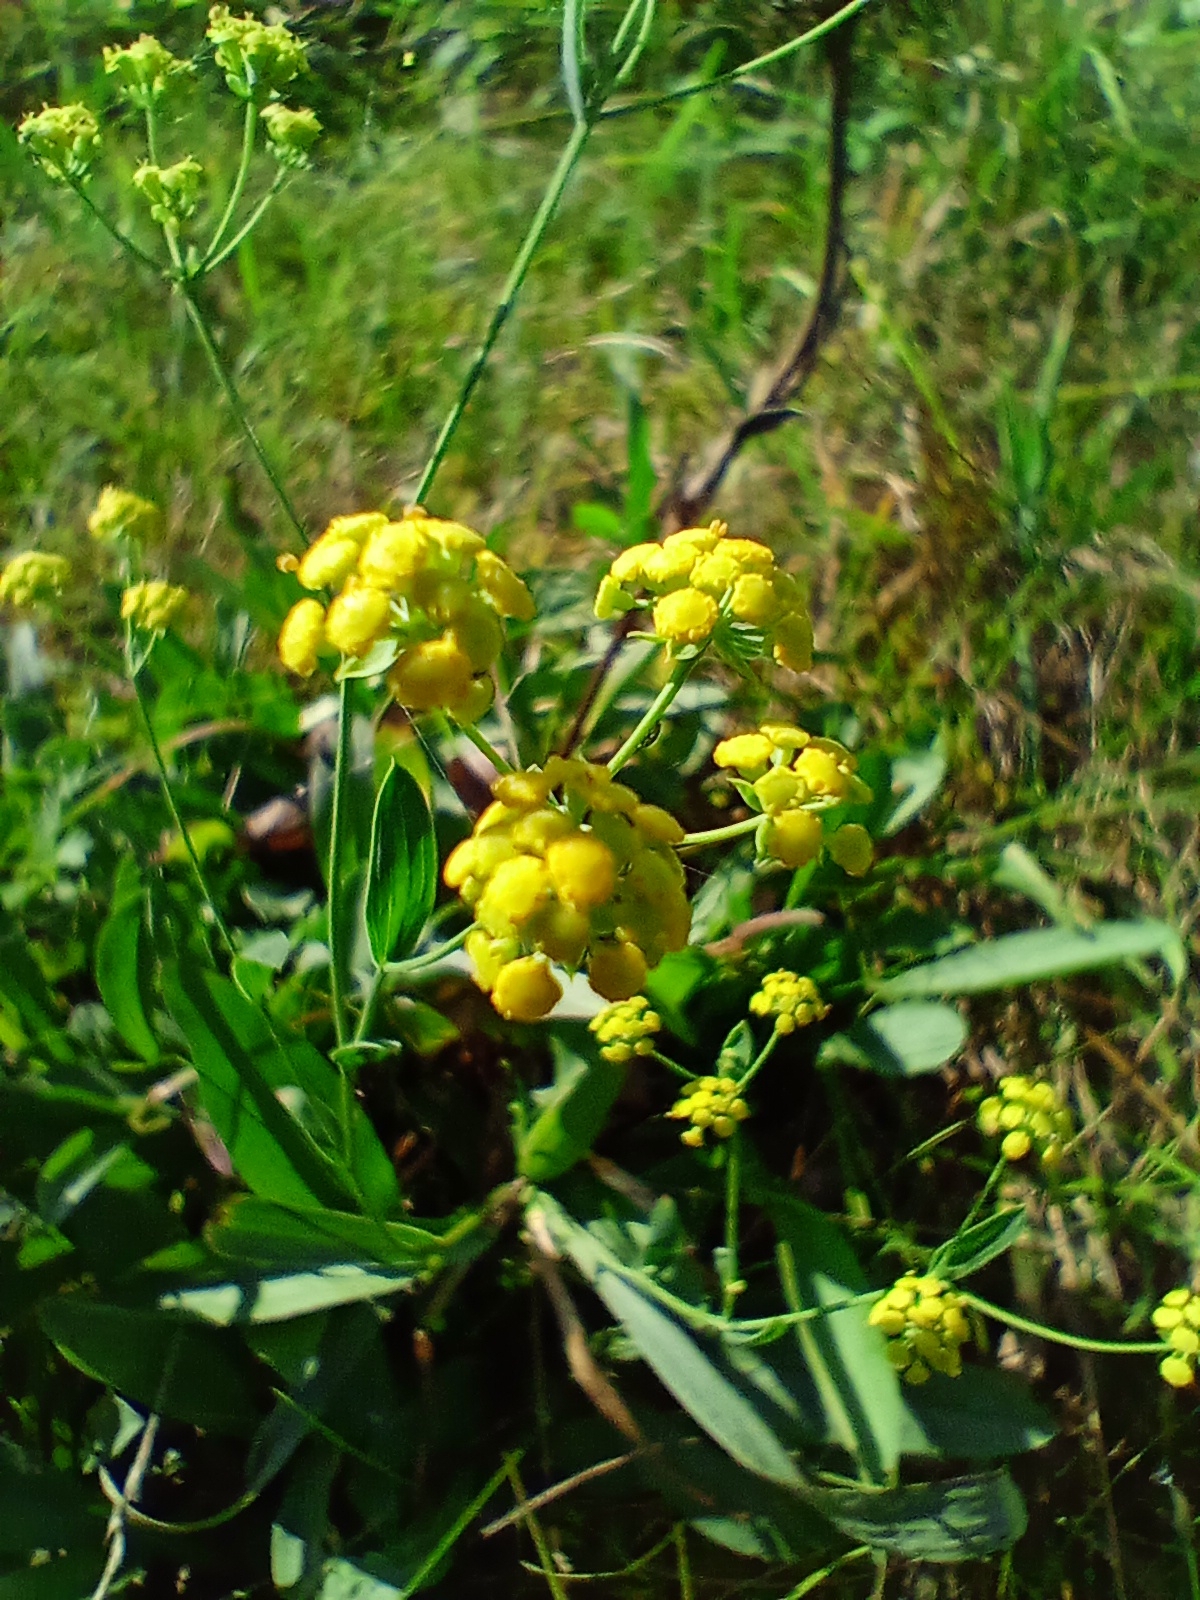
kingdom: Plantae
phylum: Tracheophyta
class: Magnoliopsida
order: Apiales
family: Apiaceae
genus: Bupleurum
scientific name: Bupleurum sibiricum
